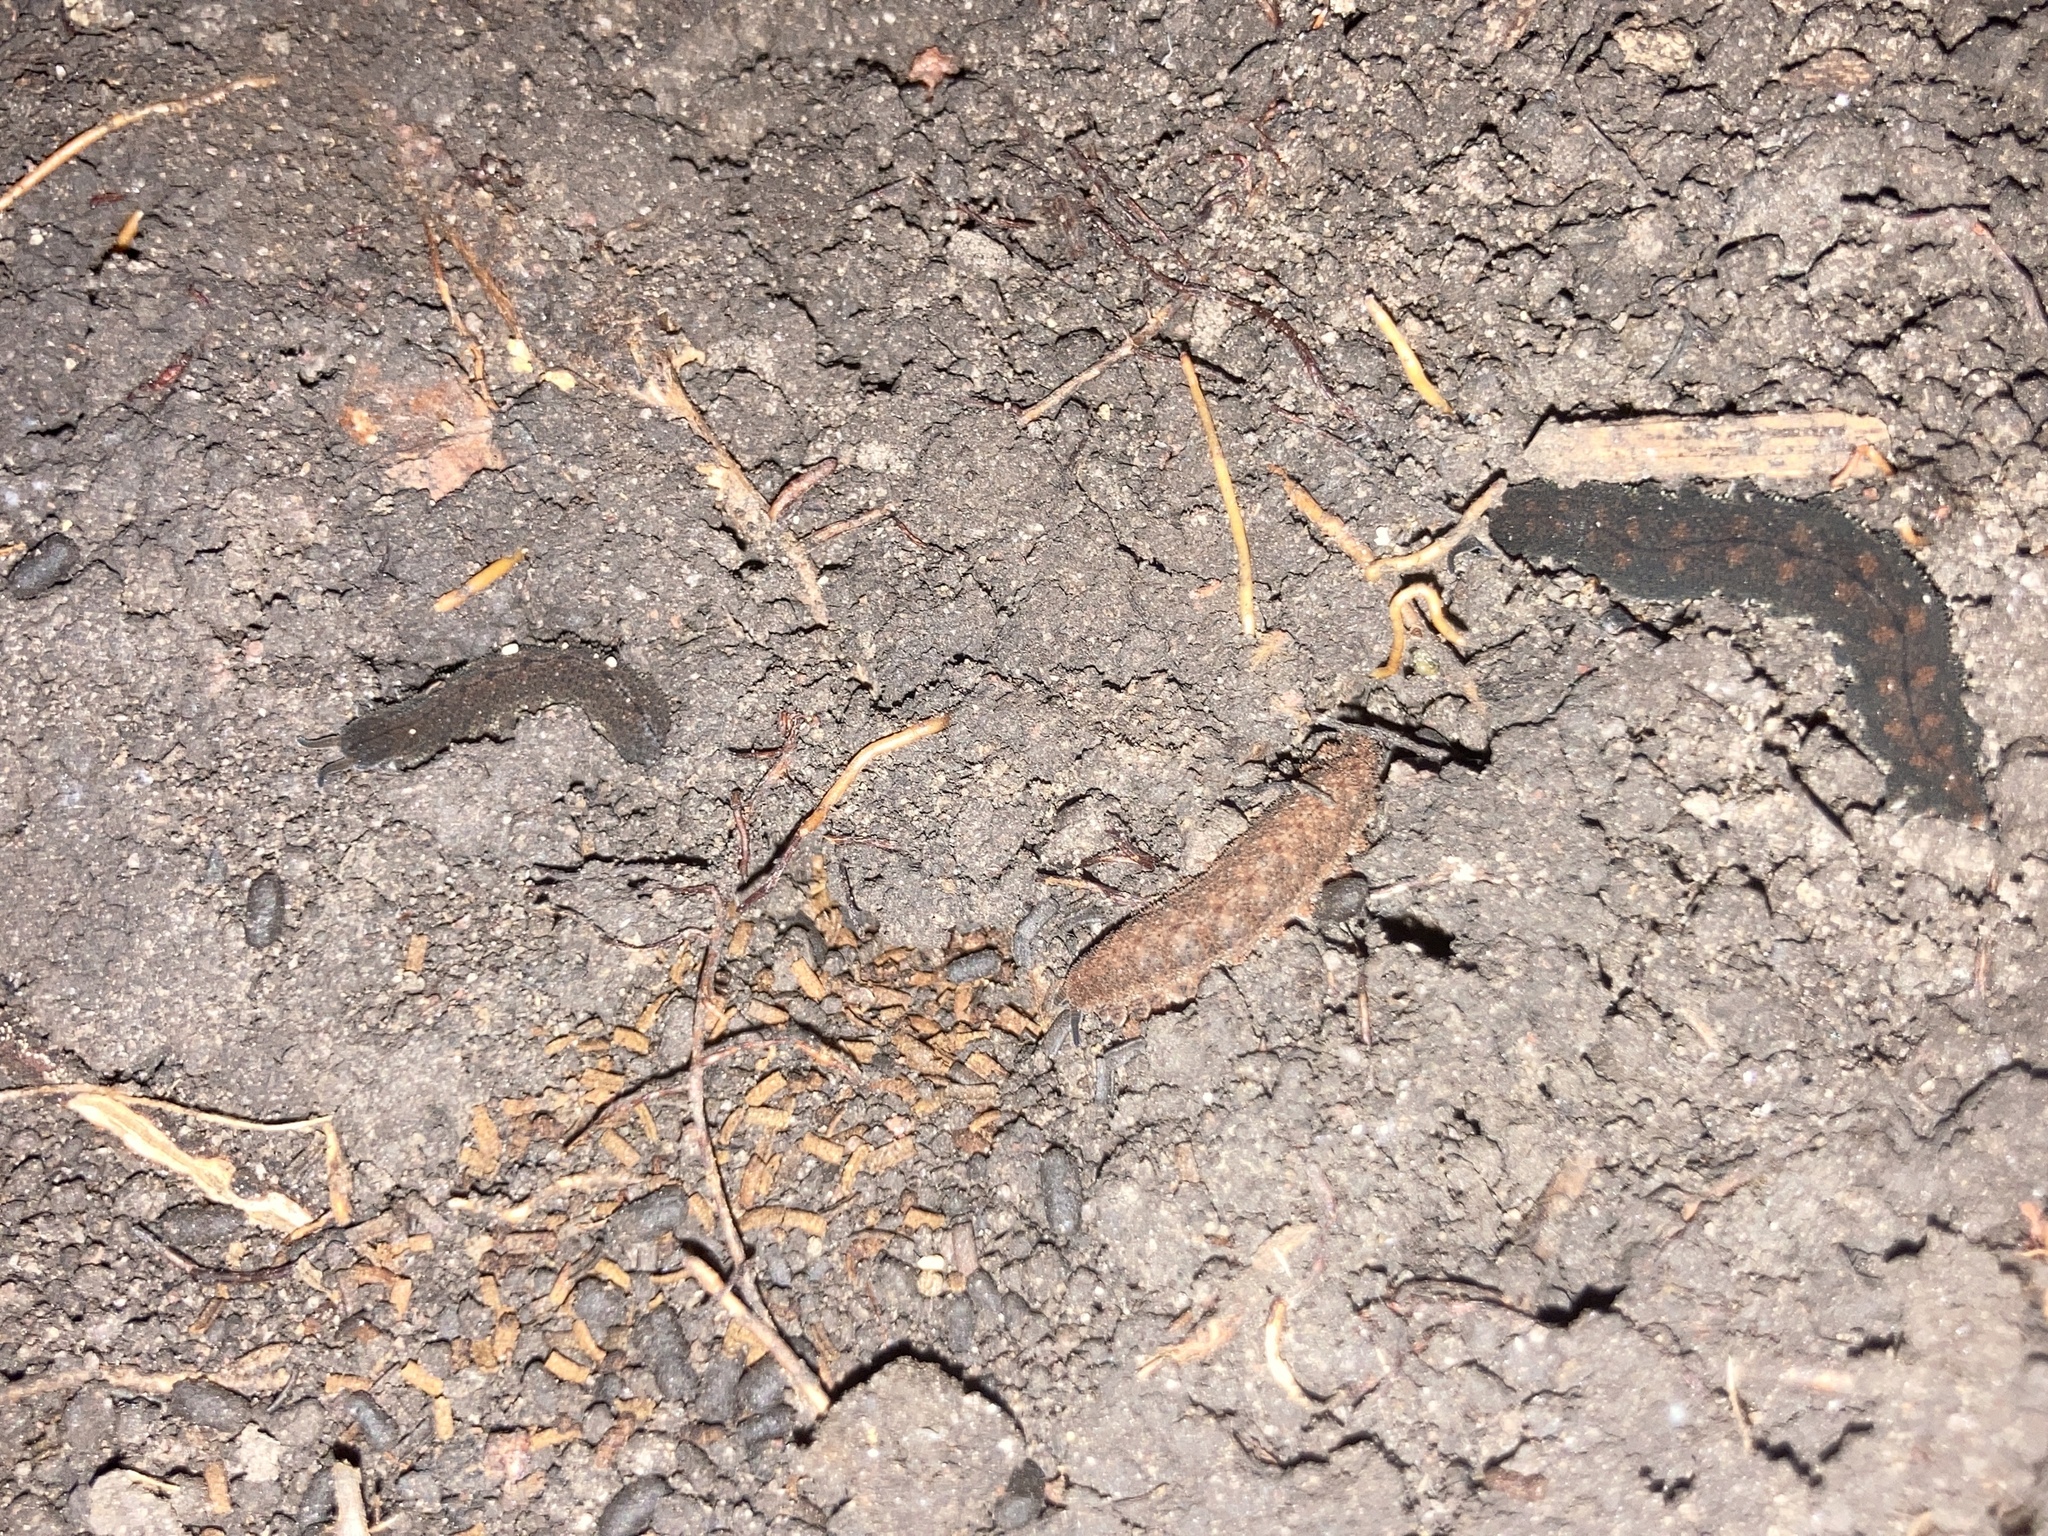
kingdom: Animalia
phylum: Onychophora
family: Peripatopsidae
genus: Anoplokaros
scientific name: Anoplokaros keerensis
